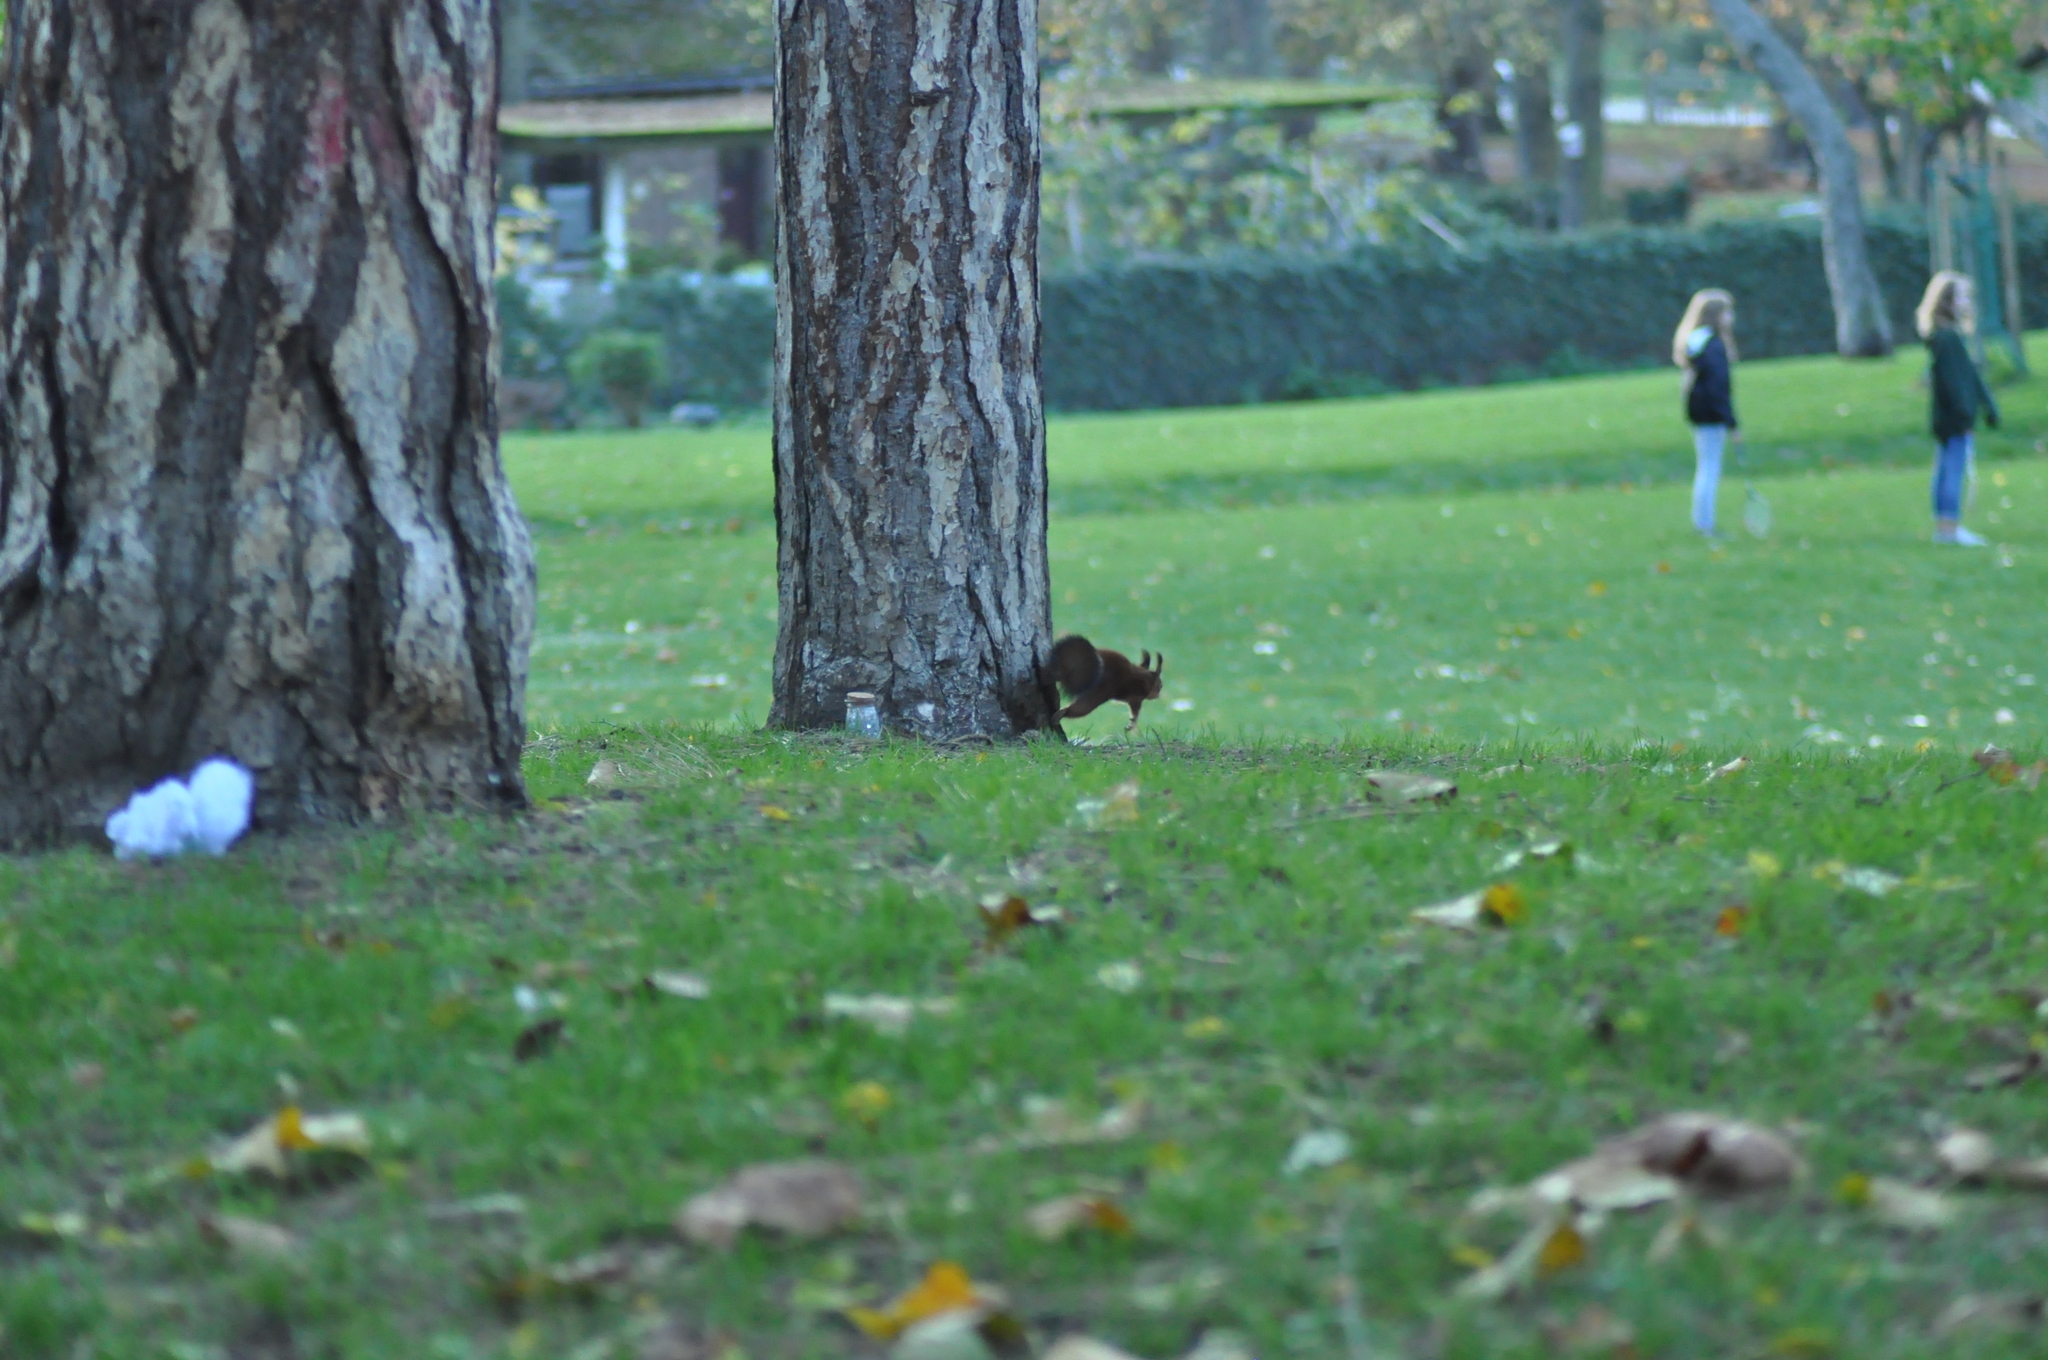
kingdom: Animalia
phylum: Chordata
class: Mammalia
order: Rodentia
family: Sciuridae
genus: Sciurus
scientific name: Sciurus vulgaris
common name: Eurasian red squirrel
